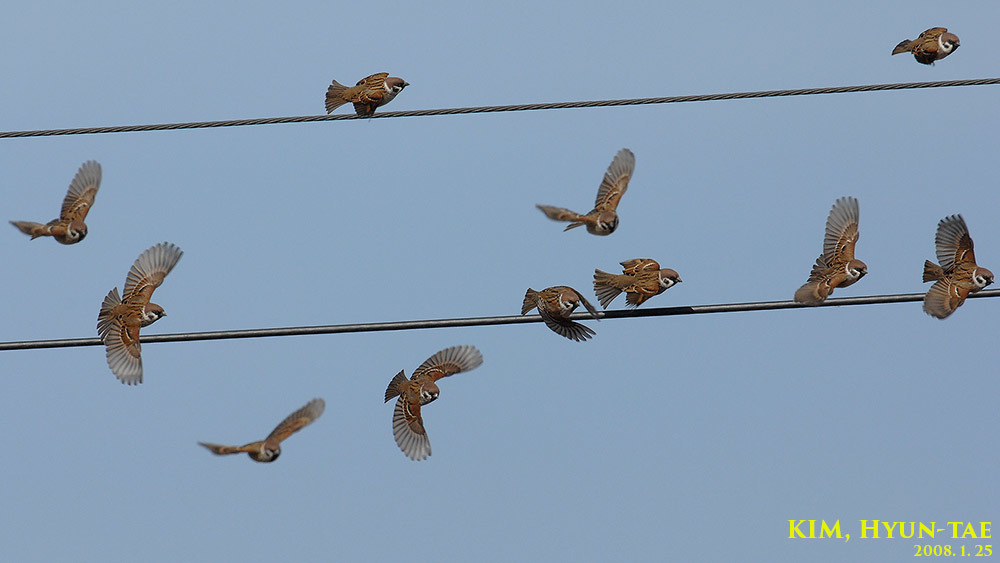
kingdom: Animalia
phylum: Chordata
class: Aves
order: Passeriformes
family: Passeridae
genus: Passer
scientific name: Passer montanus
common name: Eurasian tree sparrow
